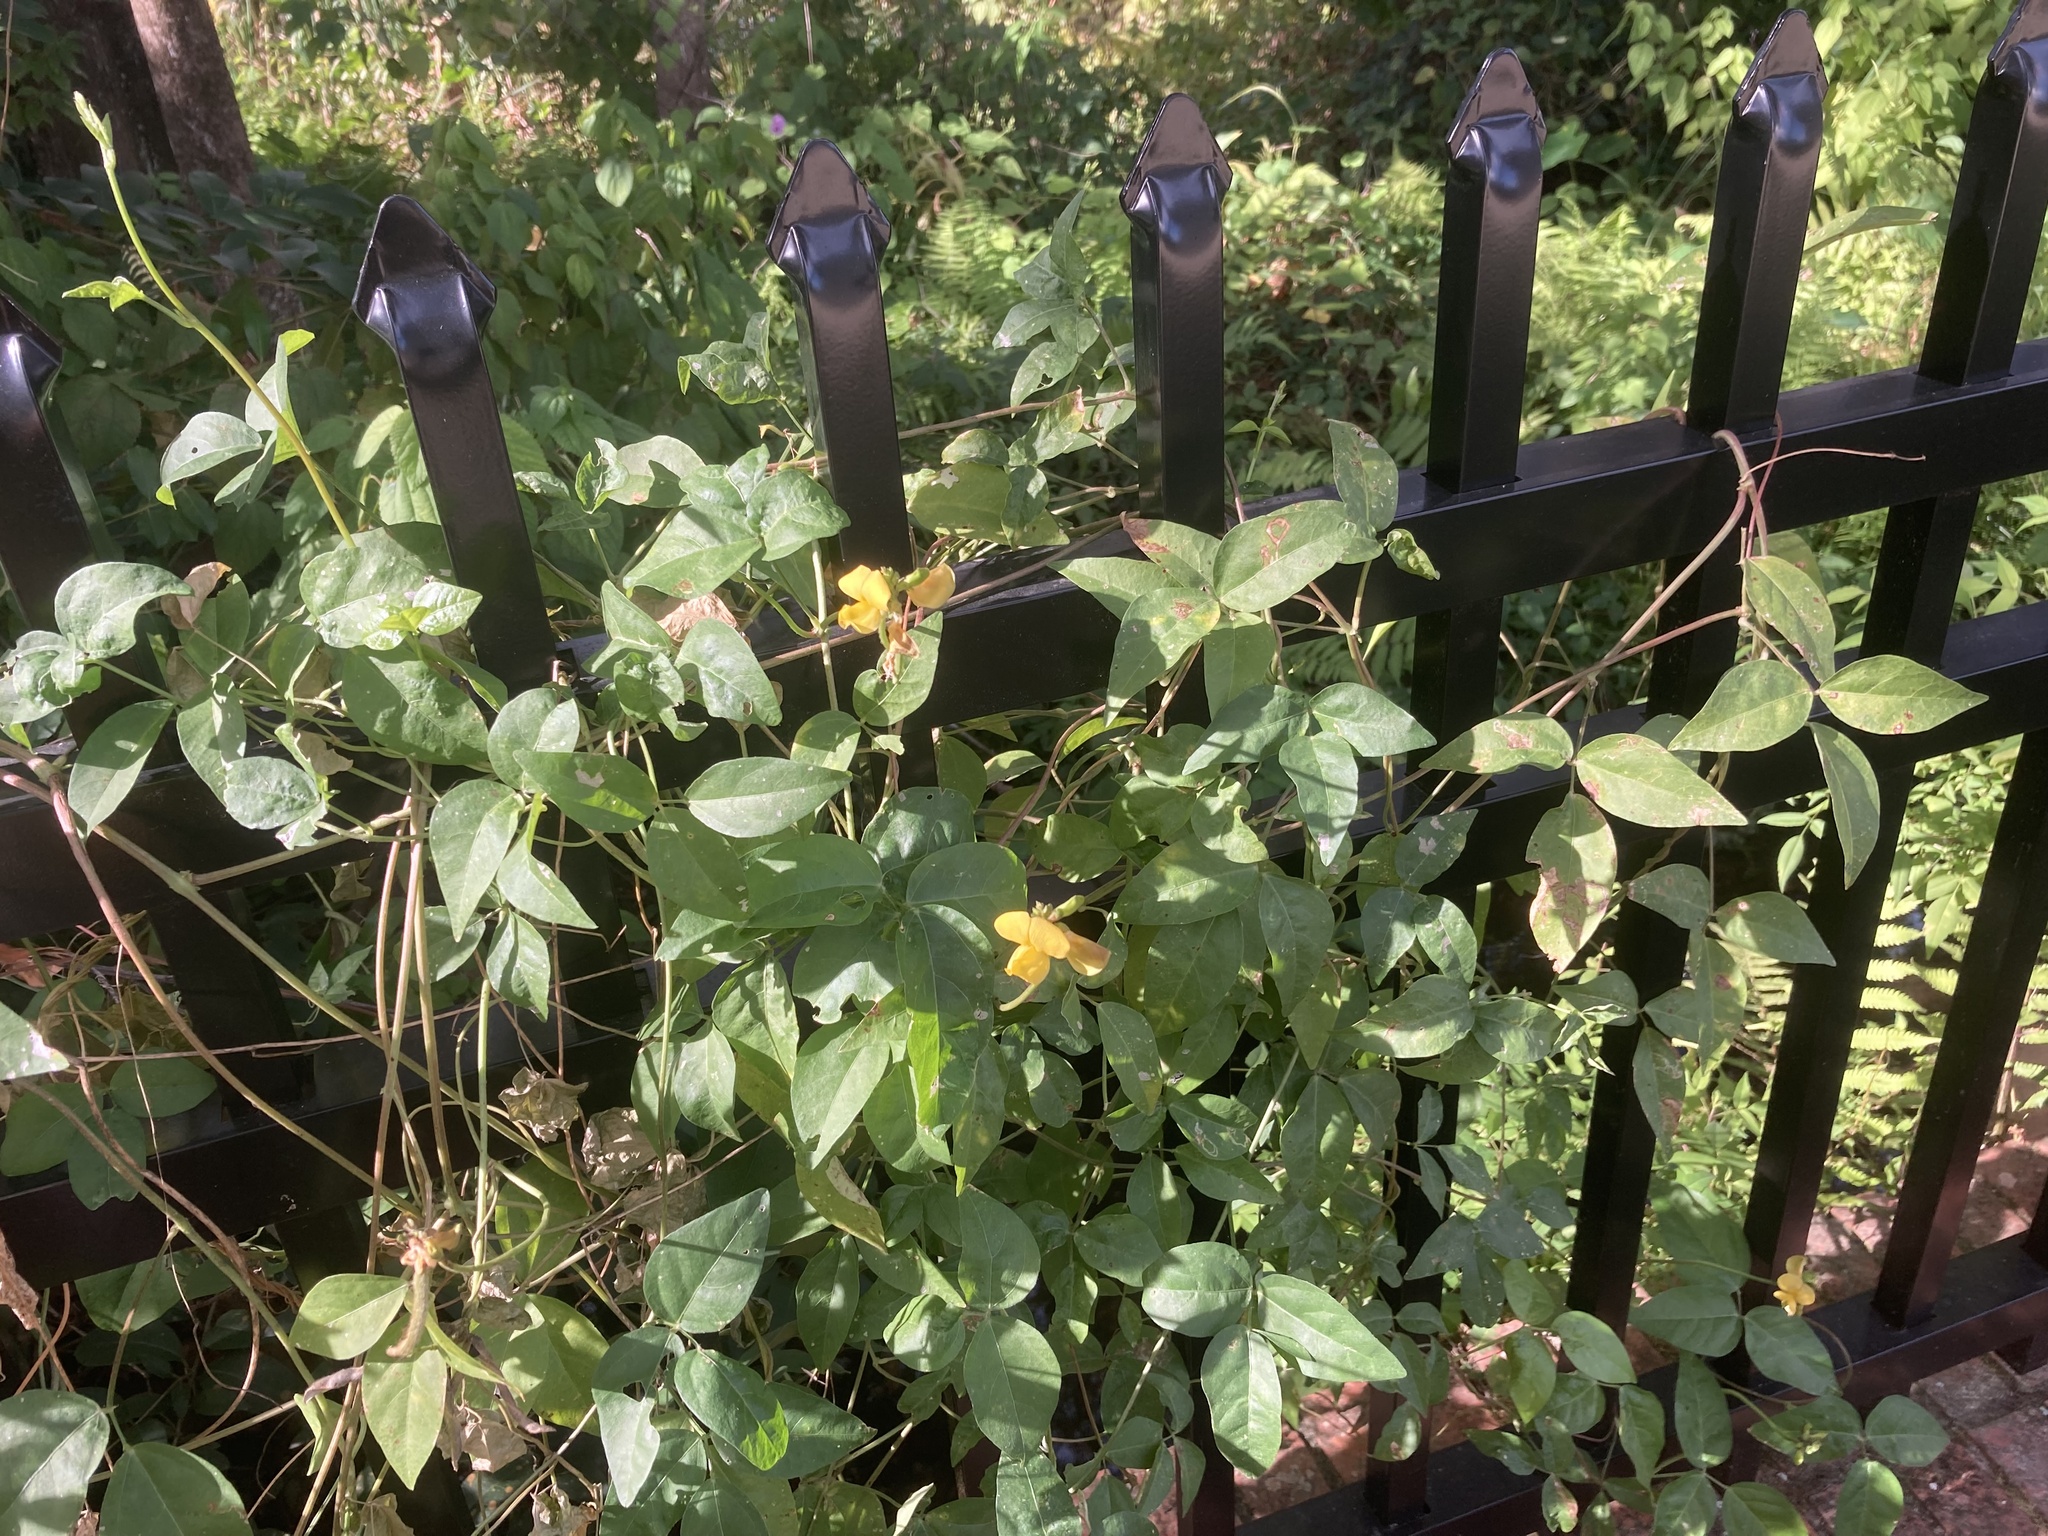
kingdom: Plantae
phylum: Tracheophyta
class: Magnoliopsida
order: Fabales
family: Fabaceae
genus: Vigna
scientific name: Vigna luteola
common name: Hairypod cowpea
